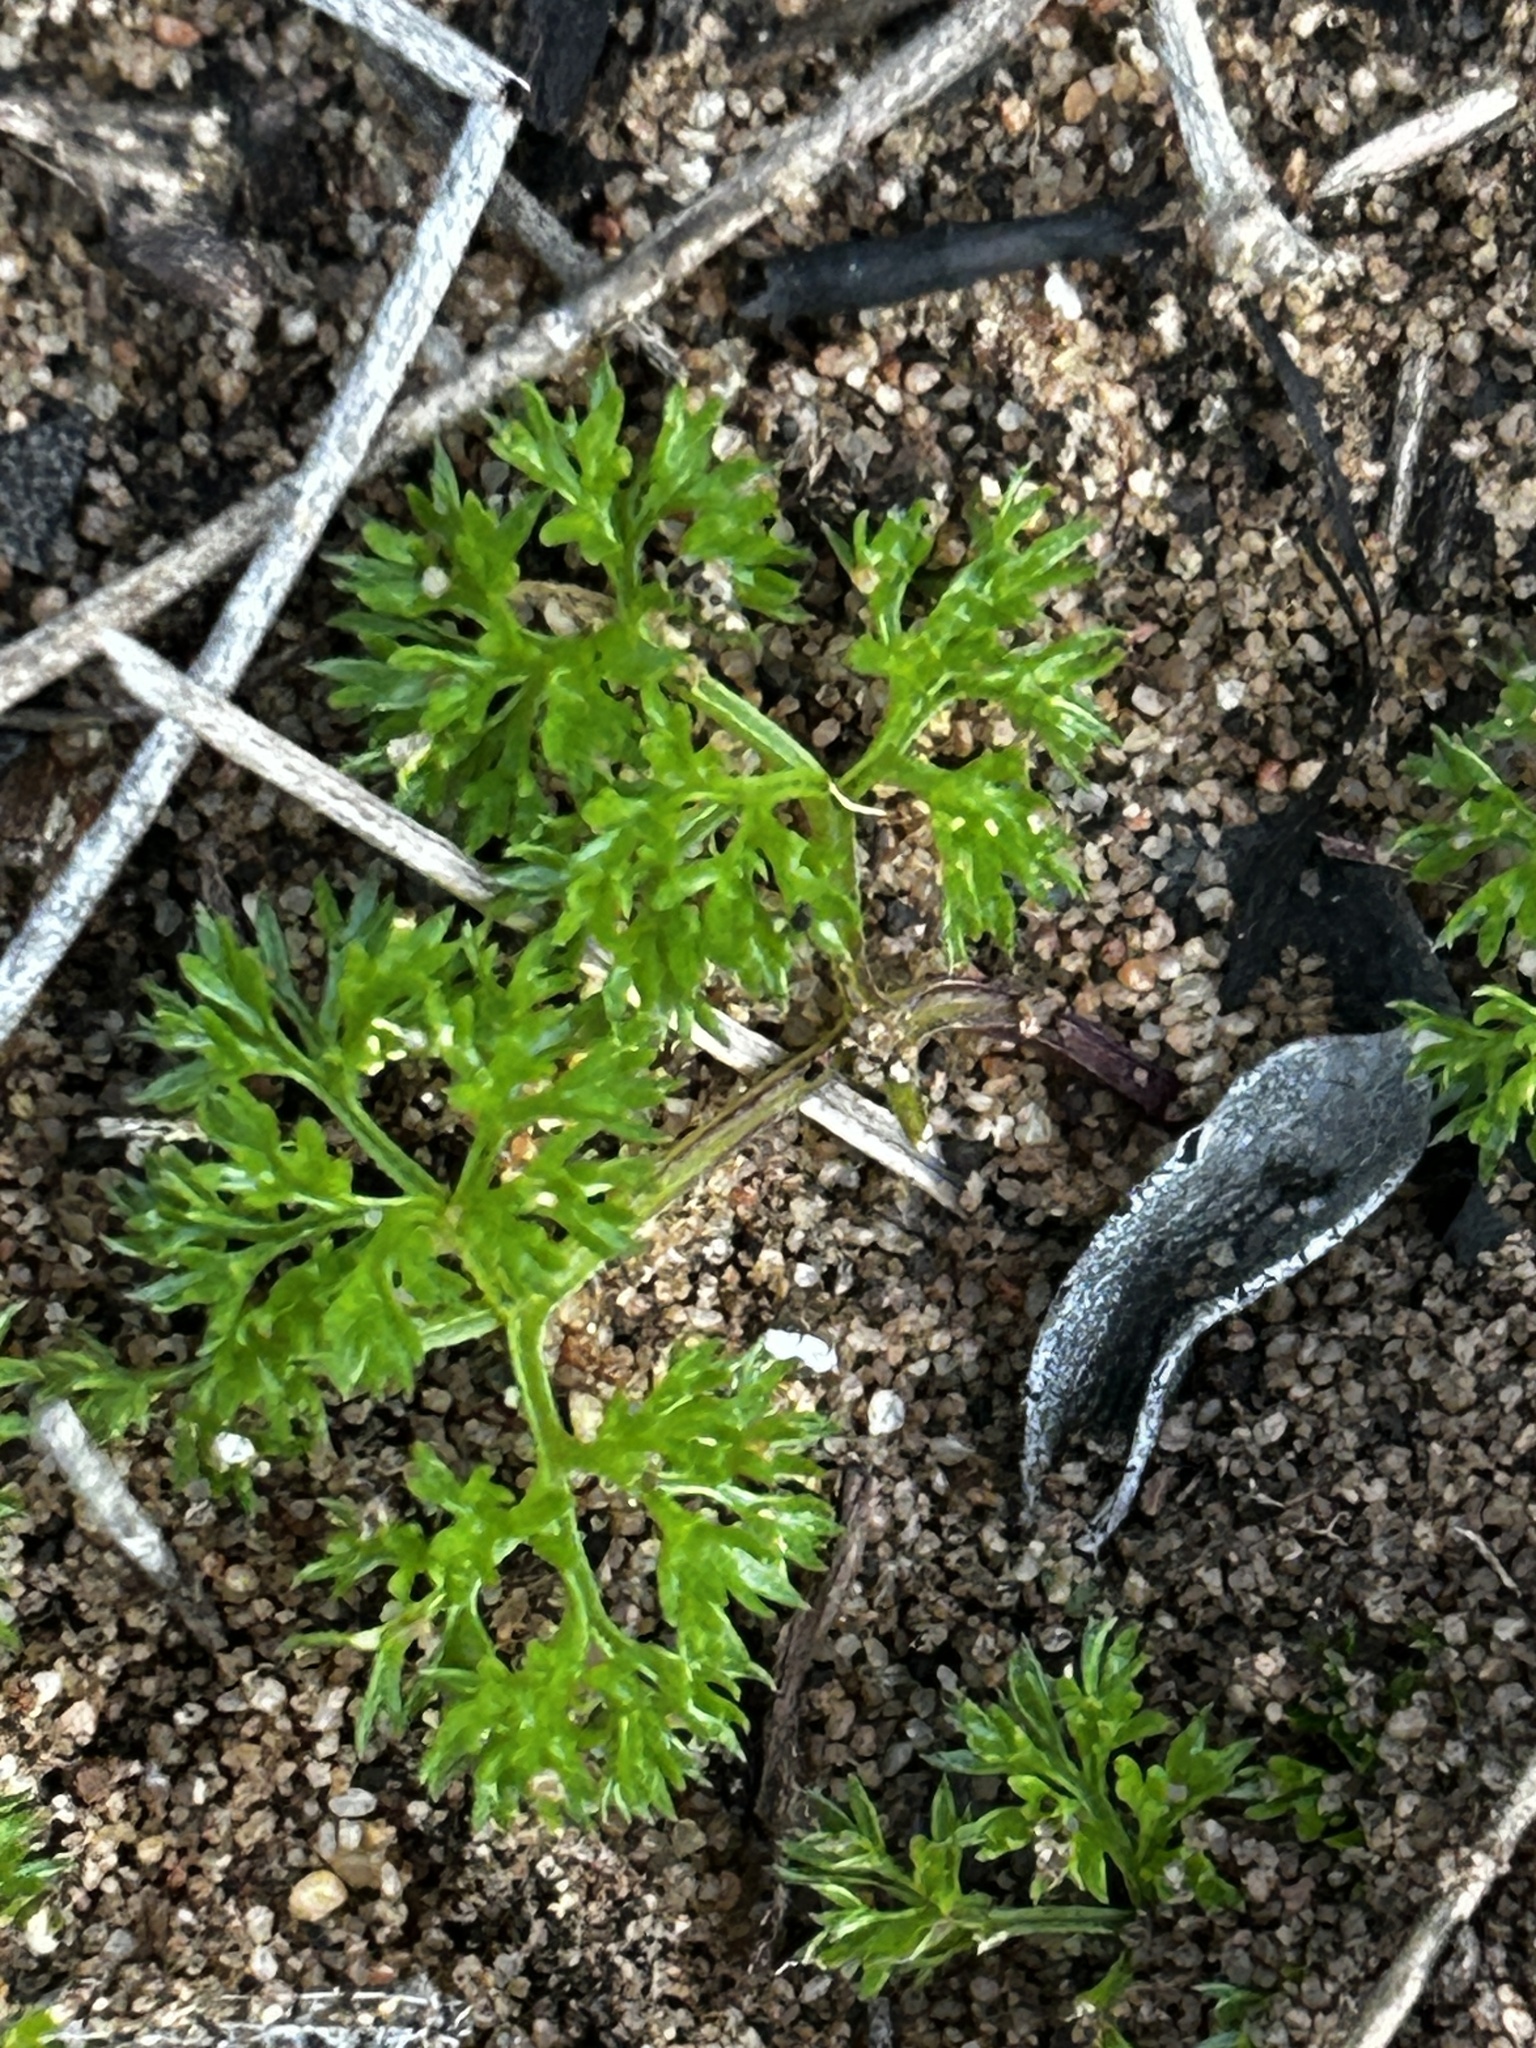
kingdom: Plantae
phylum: Tracheophyta
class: Magnoliopsida
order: Apiales
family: Apiaceae
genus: Annesorhiza
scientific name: Annesorhiza macrocarpa
